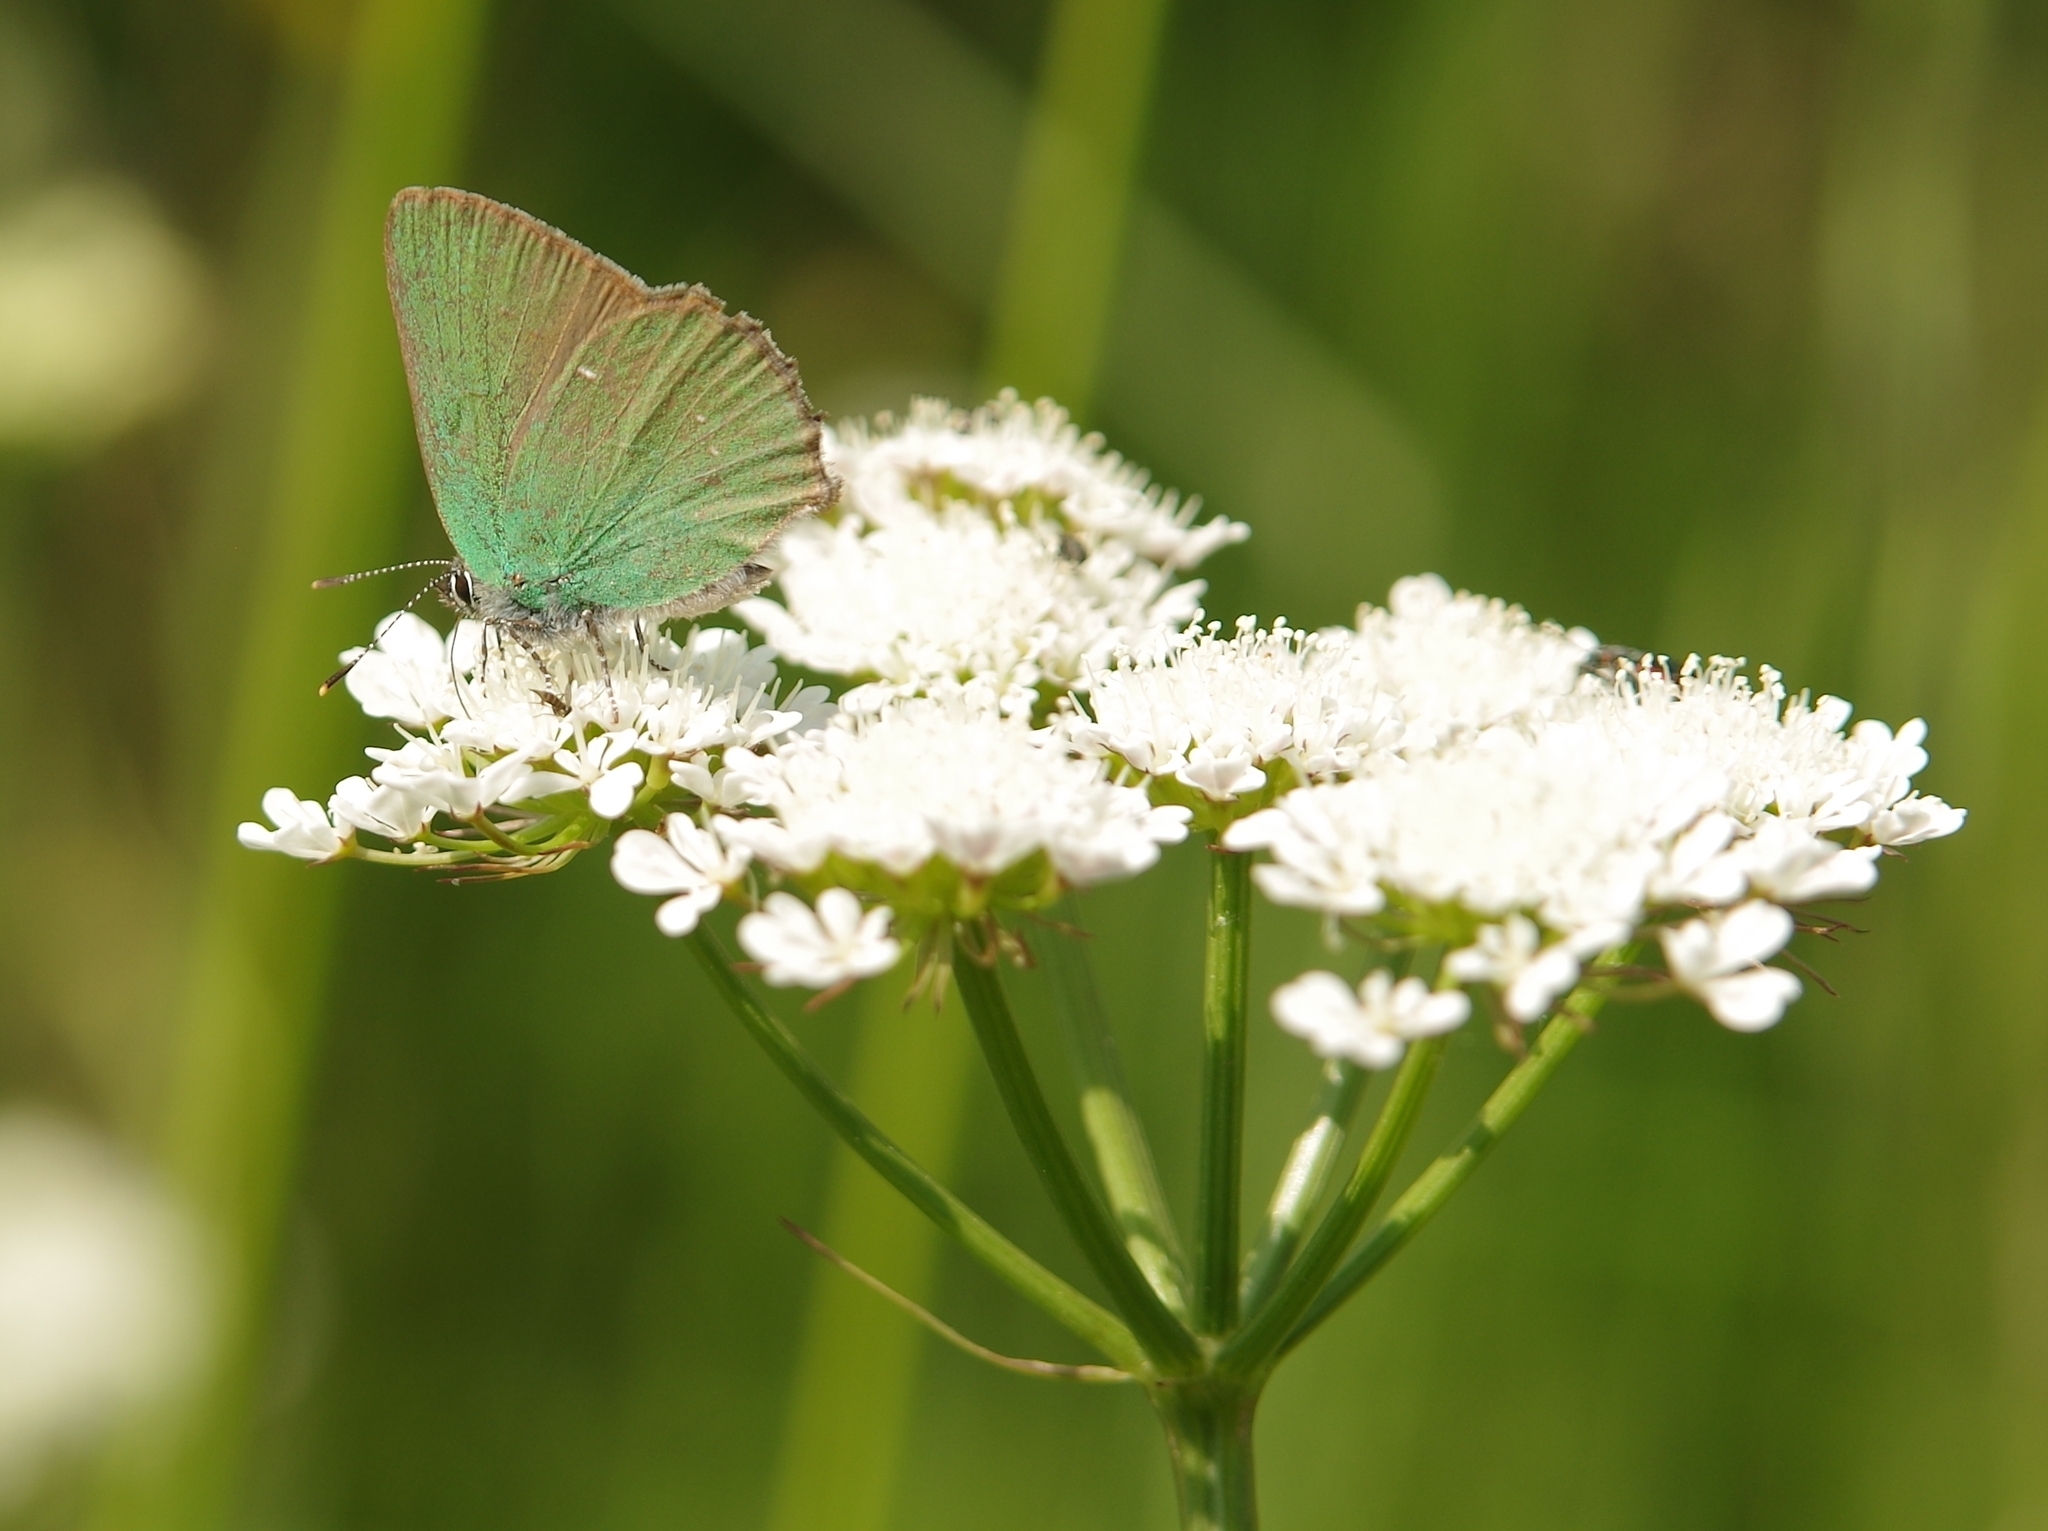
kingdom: Animalia
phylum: Arthropoda
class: Insecta
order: Lepidoptera
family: Lycaenidae
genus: Callophrys
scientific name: Callophrys rubi
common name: Green hairstreak
